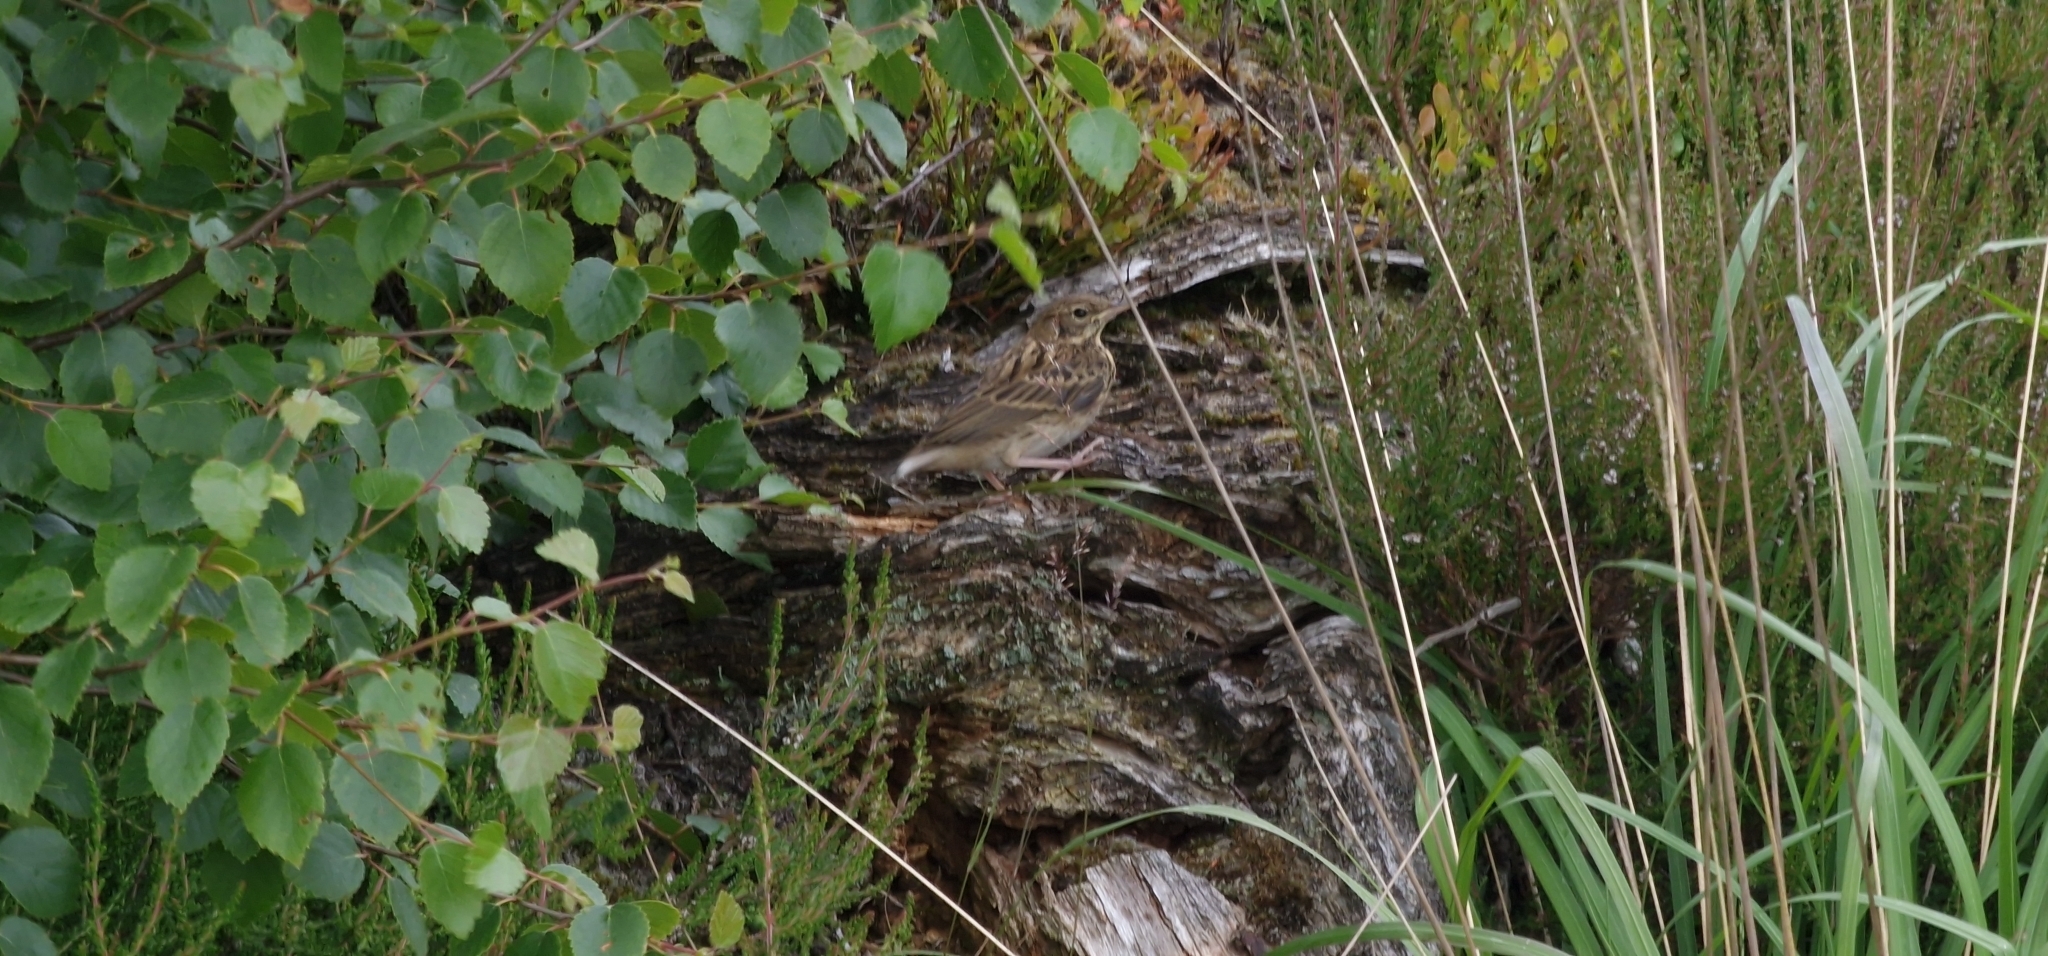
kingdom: Animalia
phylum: Chordata
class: Aves
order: Passeriformes
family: Alaudidae
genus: Alauda
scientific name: Alauda arvensis
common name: Eurasian skylark
